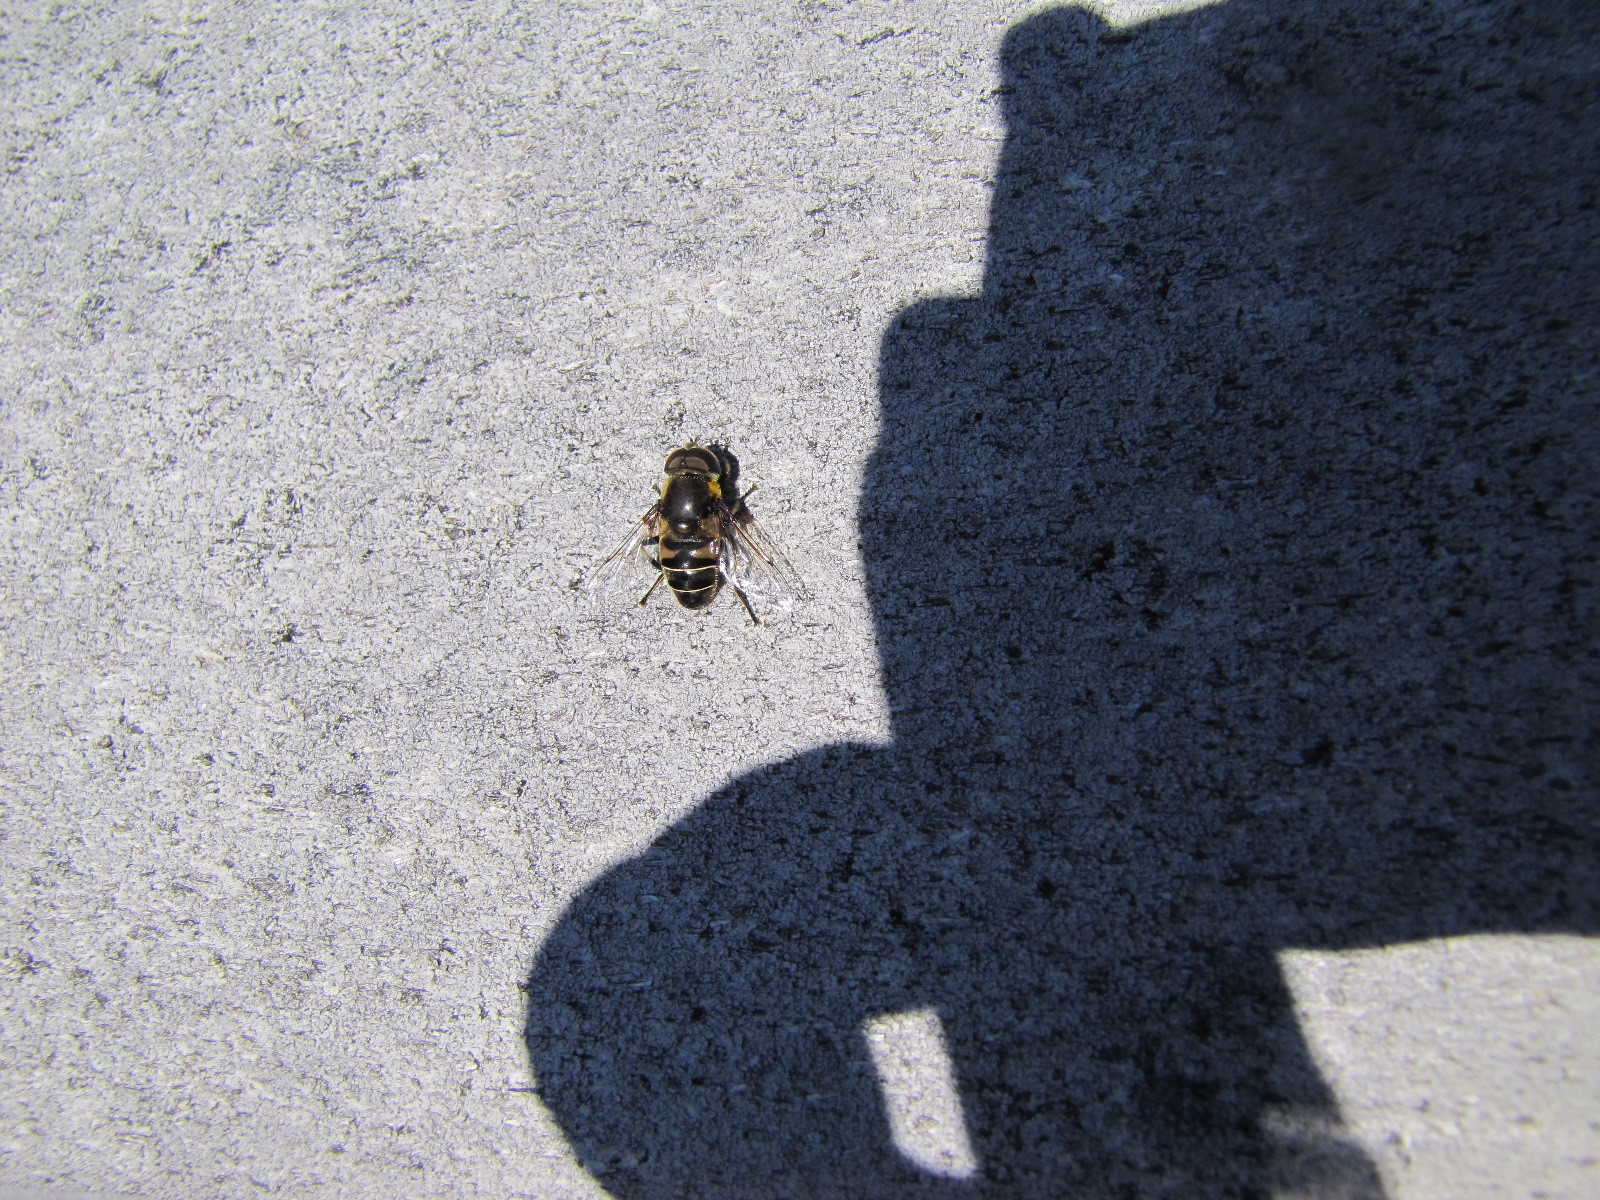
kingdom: Animalia
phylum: Arthropoda
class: Insecta
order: Diptera
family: Syrphidae
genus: Eristalis
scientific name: Eristalis dimidiata
